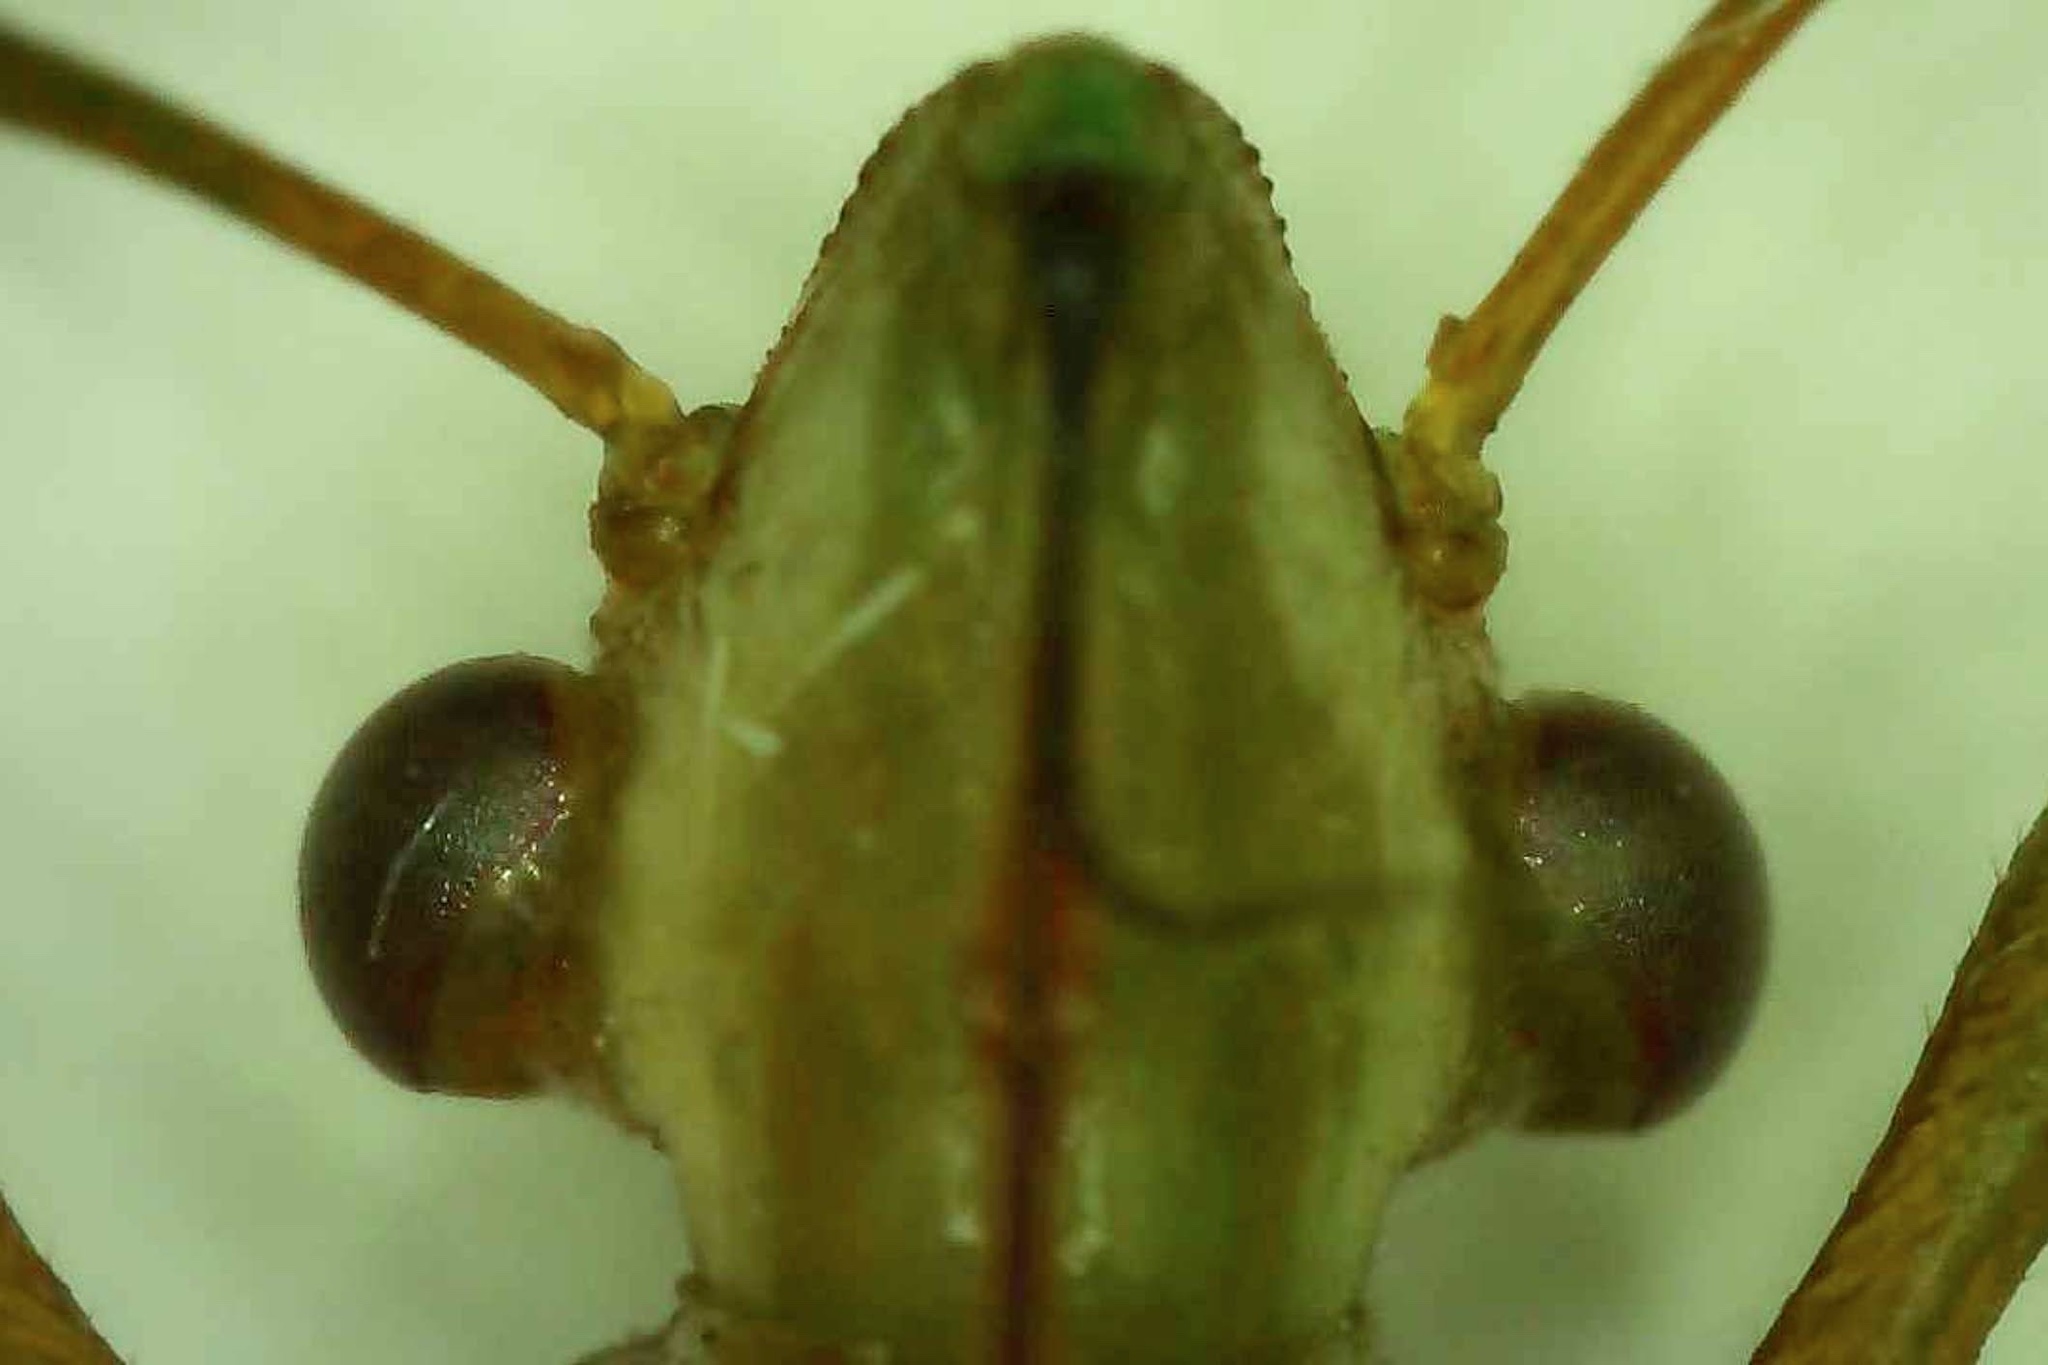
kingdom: Animalia
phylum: Arthropoda
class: Insecta
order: Hemiptera
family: Alydidae
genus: Hyalymenus
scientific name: Hyalymenus tarsatus
